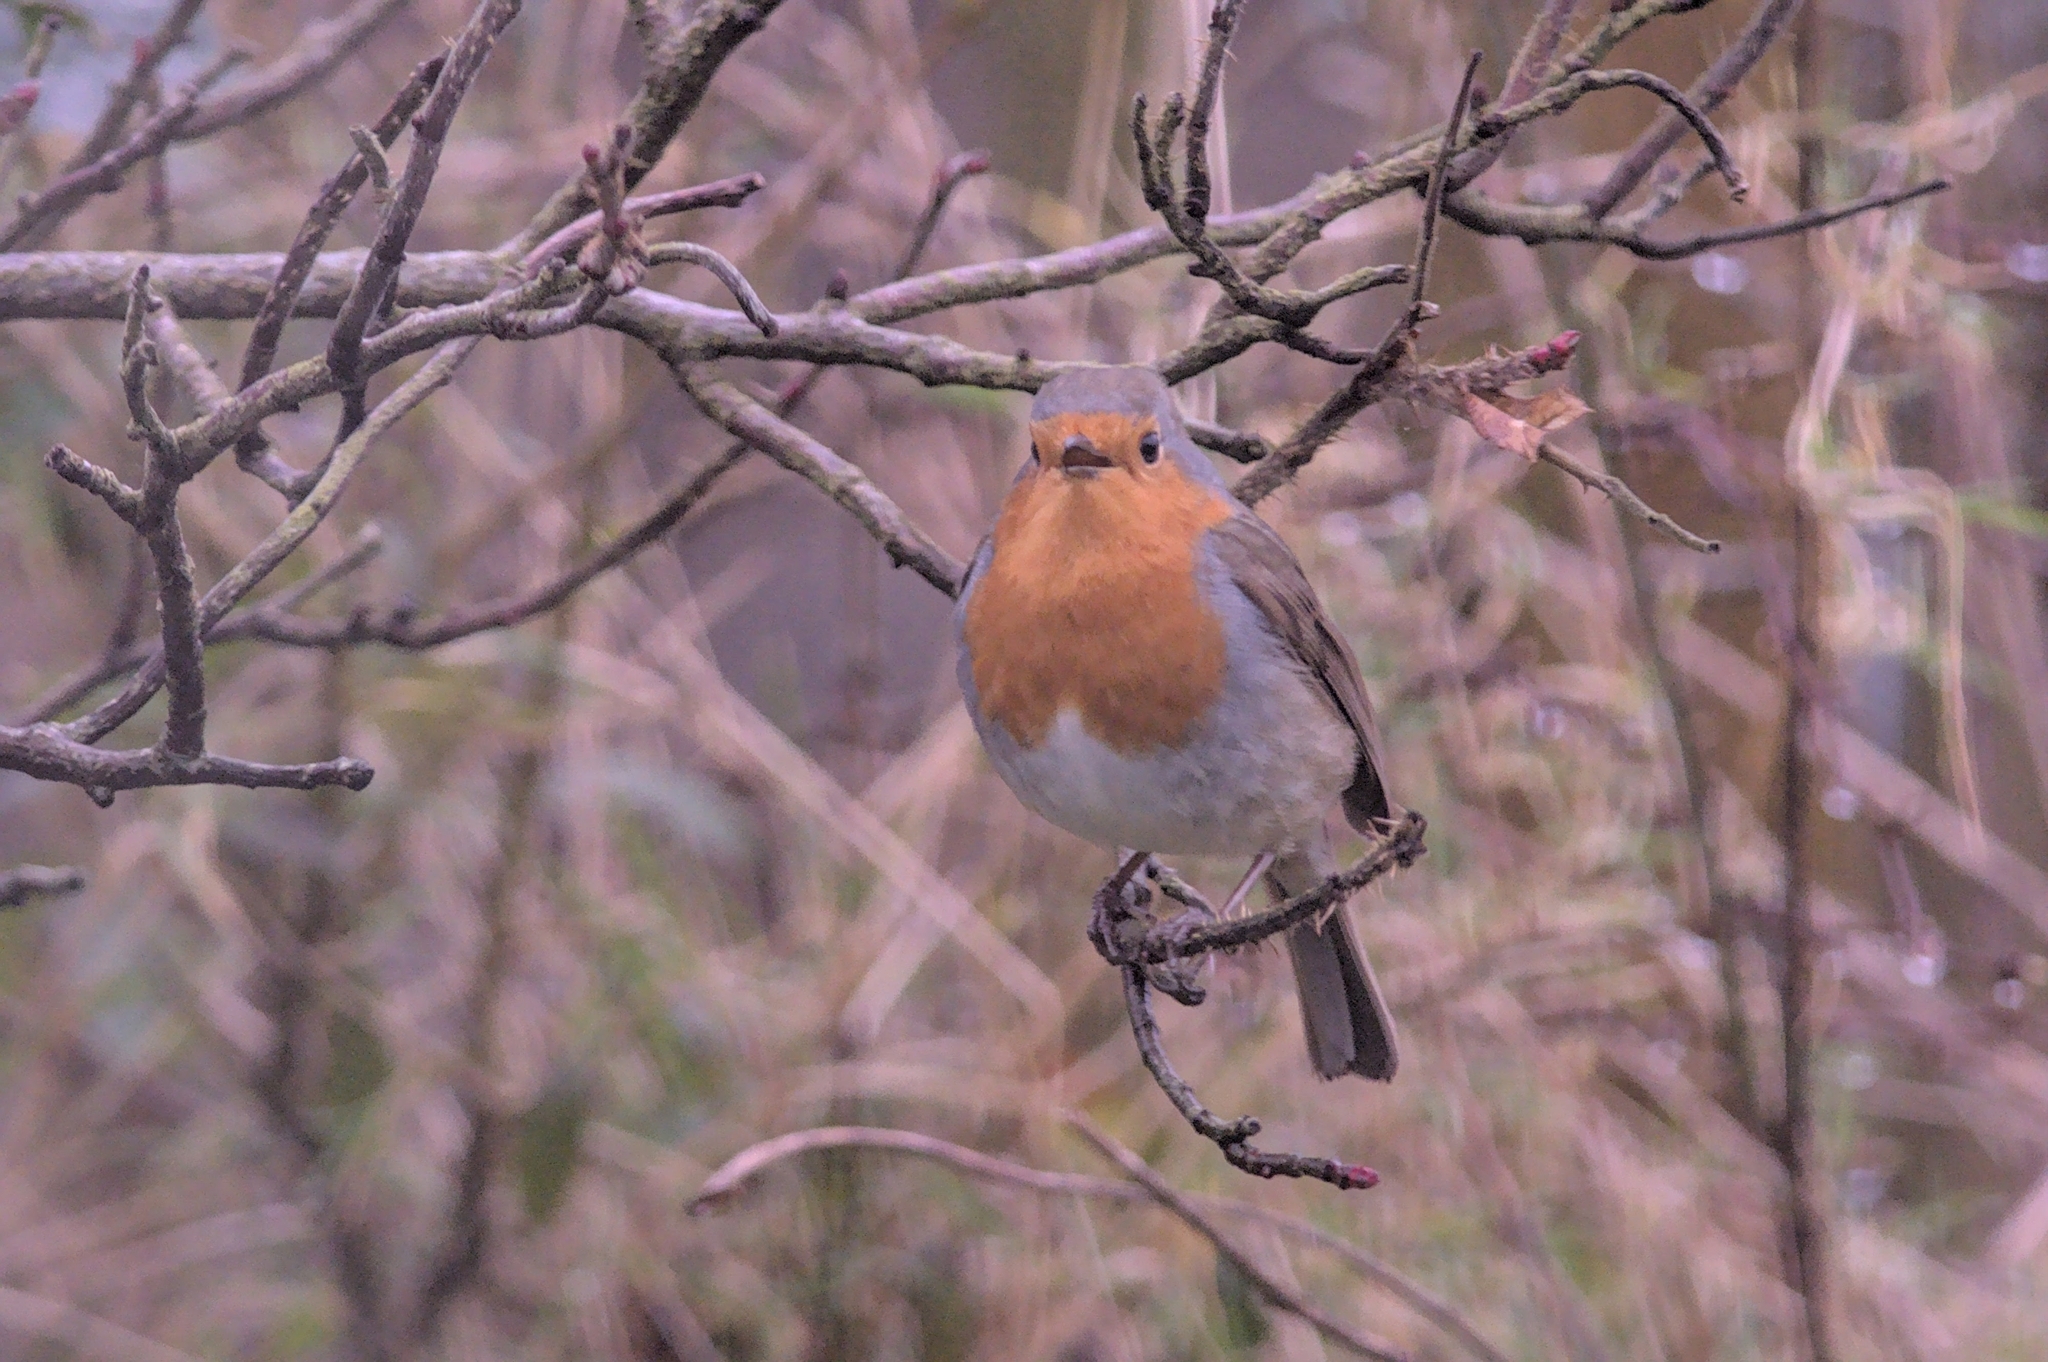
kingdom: Animalia
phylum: Chordata
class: Aves
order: Passeriformes
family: Muscicapidae
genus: Erithacus
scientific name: Erithacus rubecula
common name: European robin
